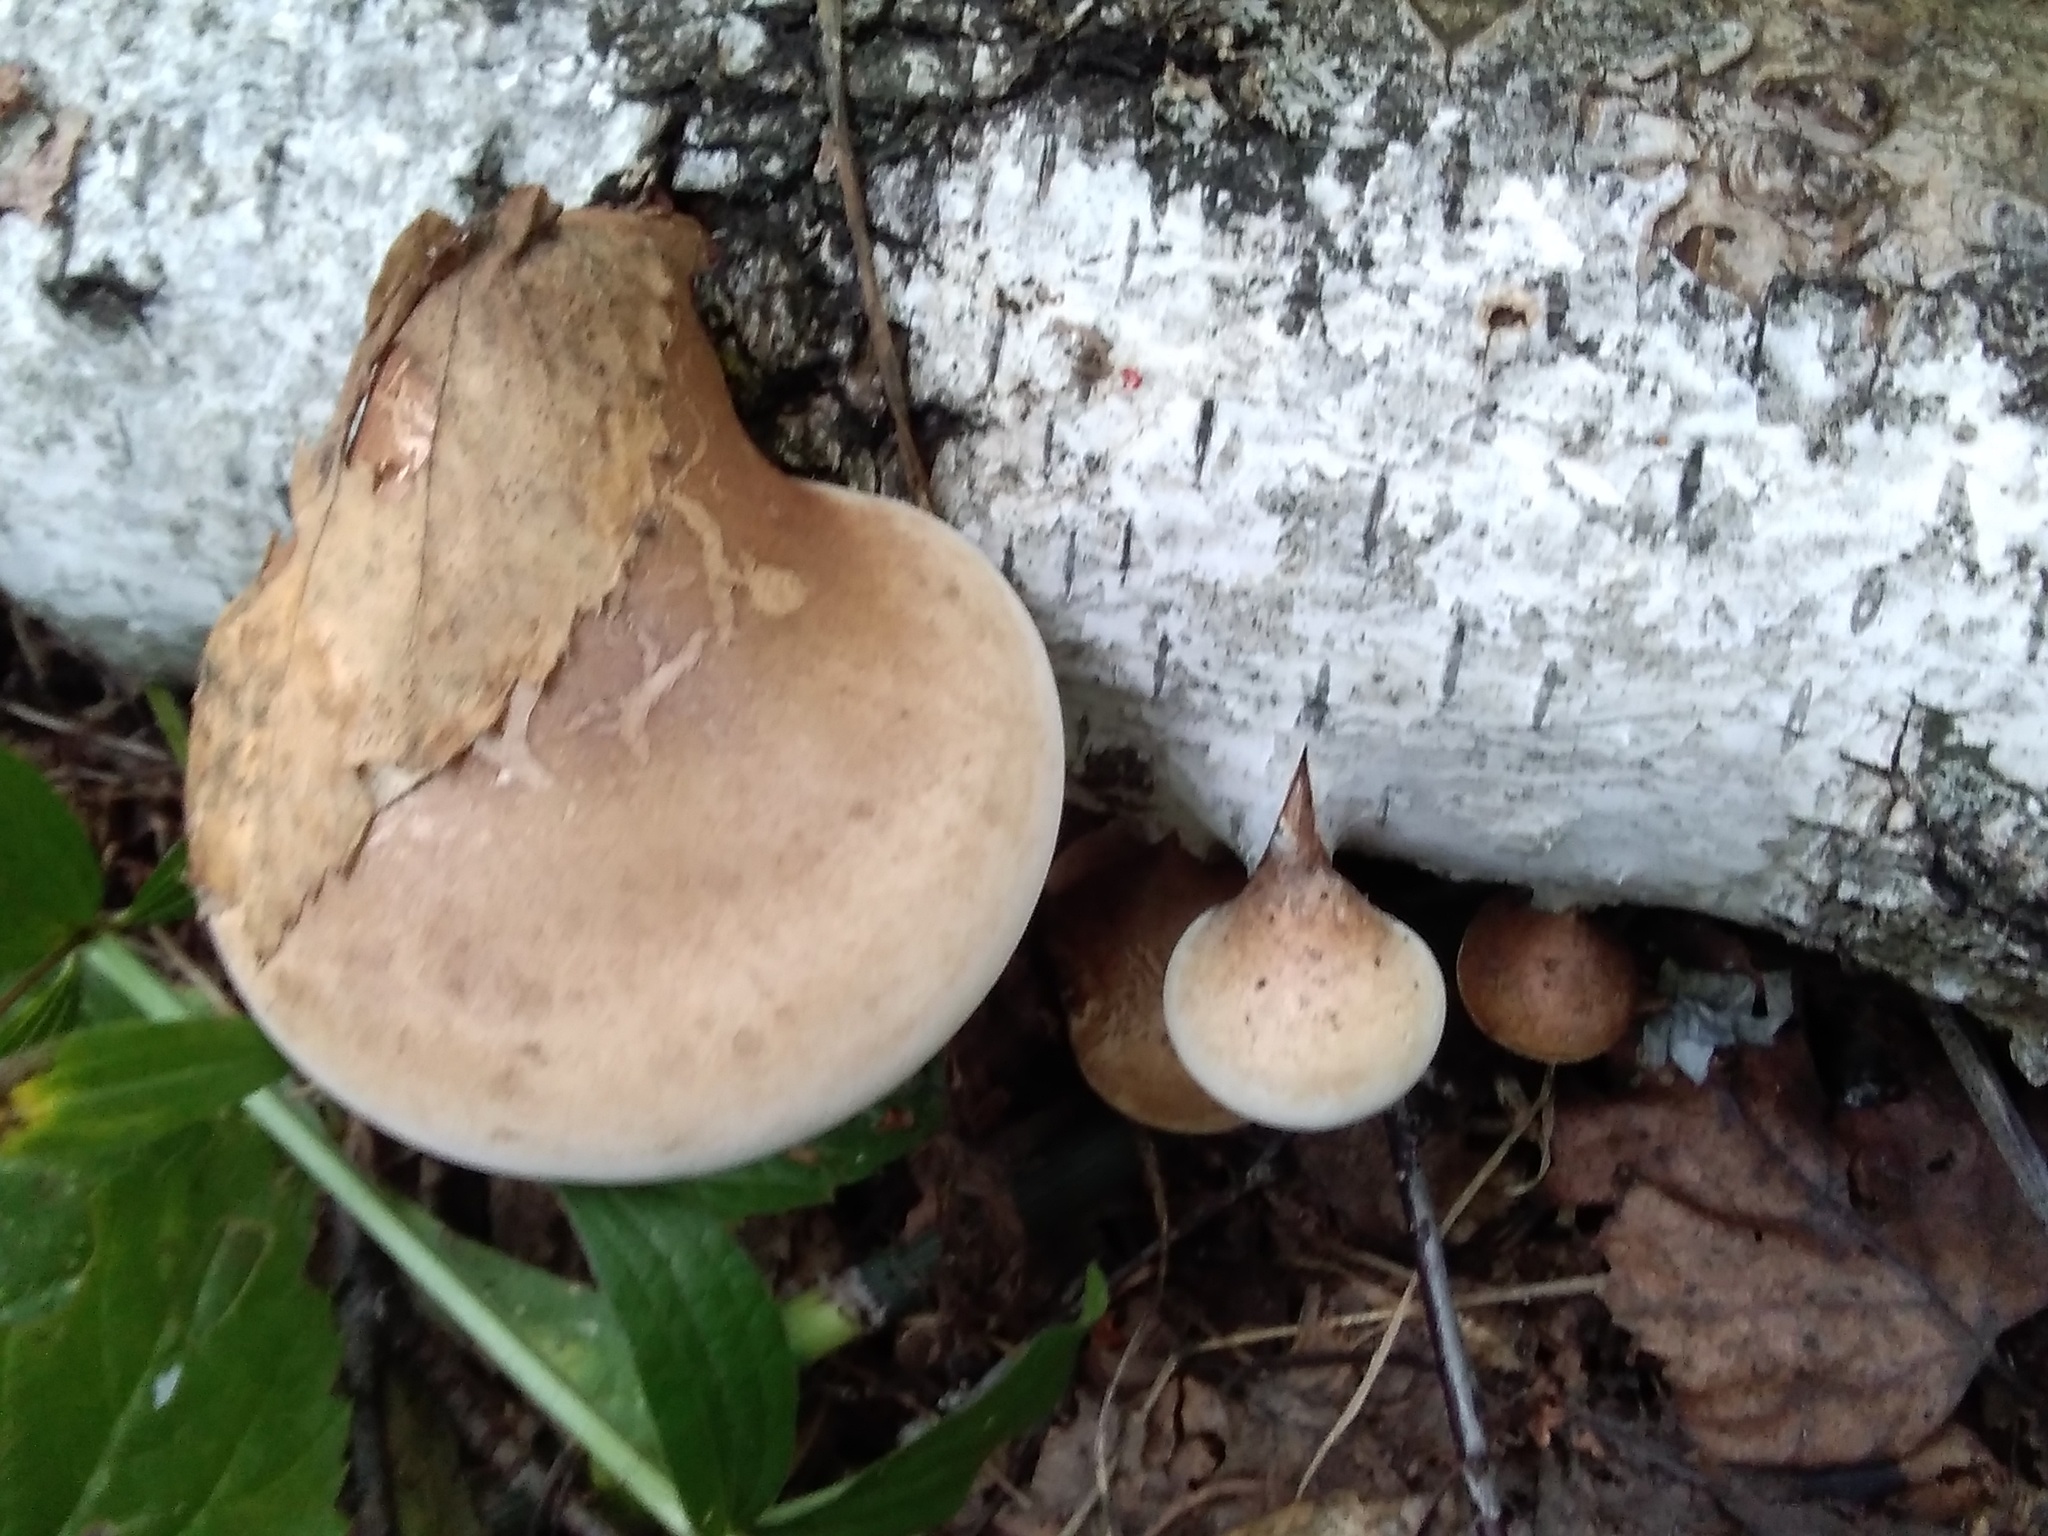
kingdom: Fungi
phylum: Basidiomycota
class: Agaricomycetes
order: Polyporales
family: Fomitopsidaceae
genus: Fomitopsis
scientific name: Fomitopsis betulina
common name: Birch polypore
